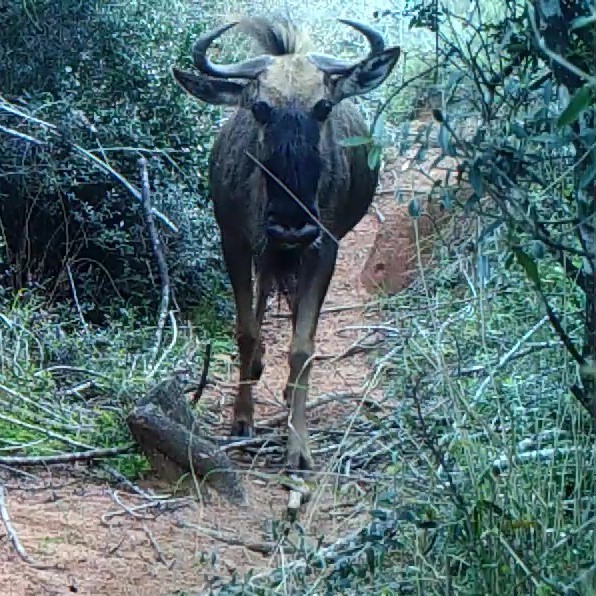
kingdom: Animalia
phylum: Chordata
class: Mammalia
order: Artiodactyla
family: Bovidae
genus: Connochaetes
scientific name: Connochaetes taurinus
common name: Blue wildebeest
